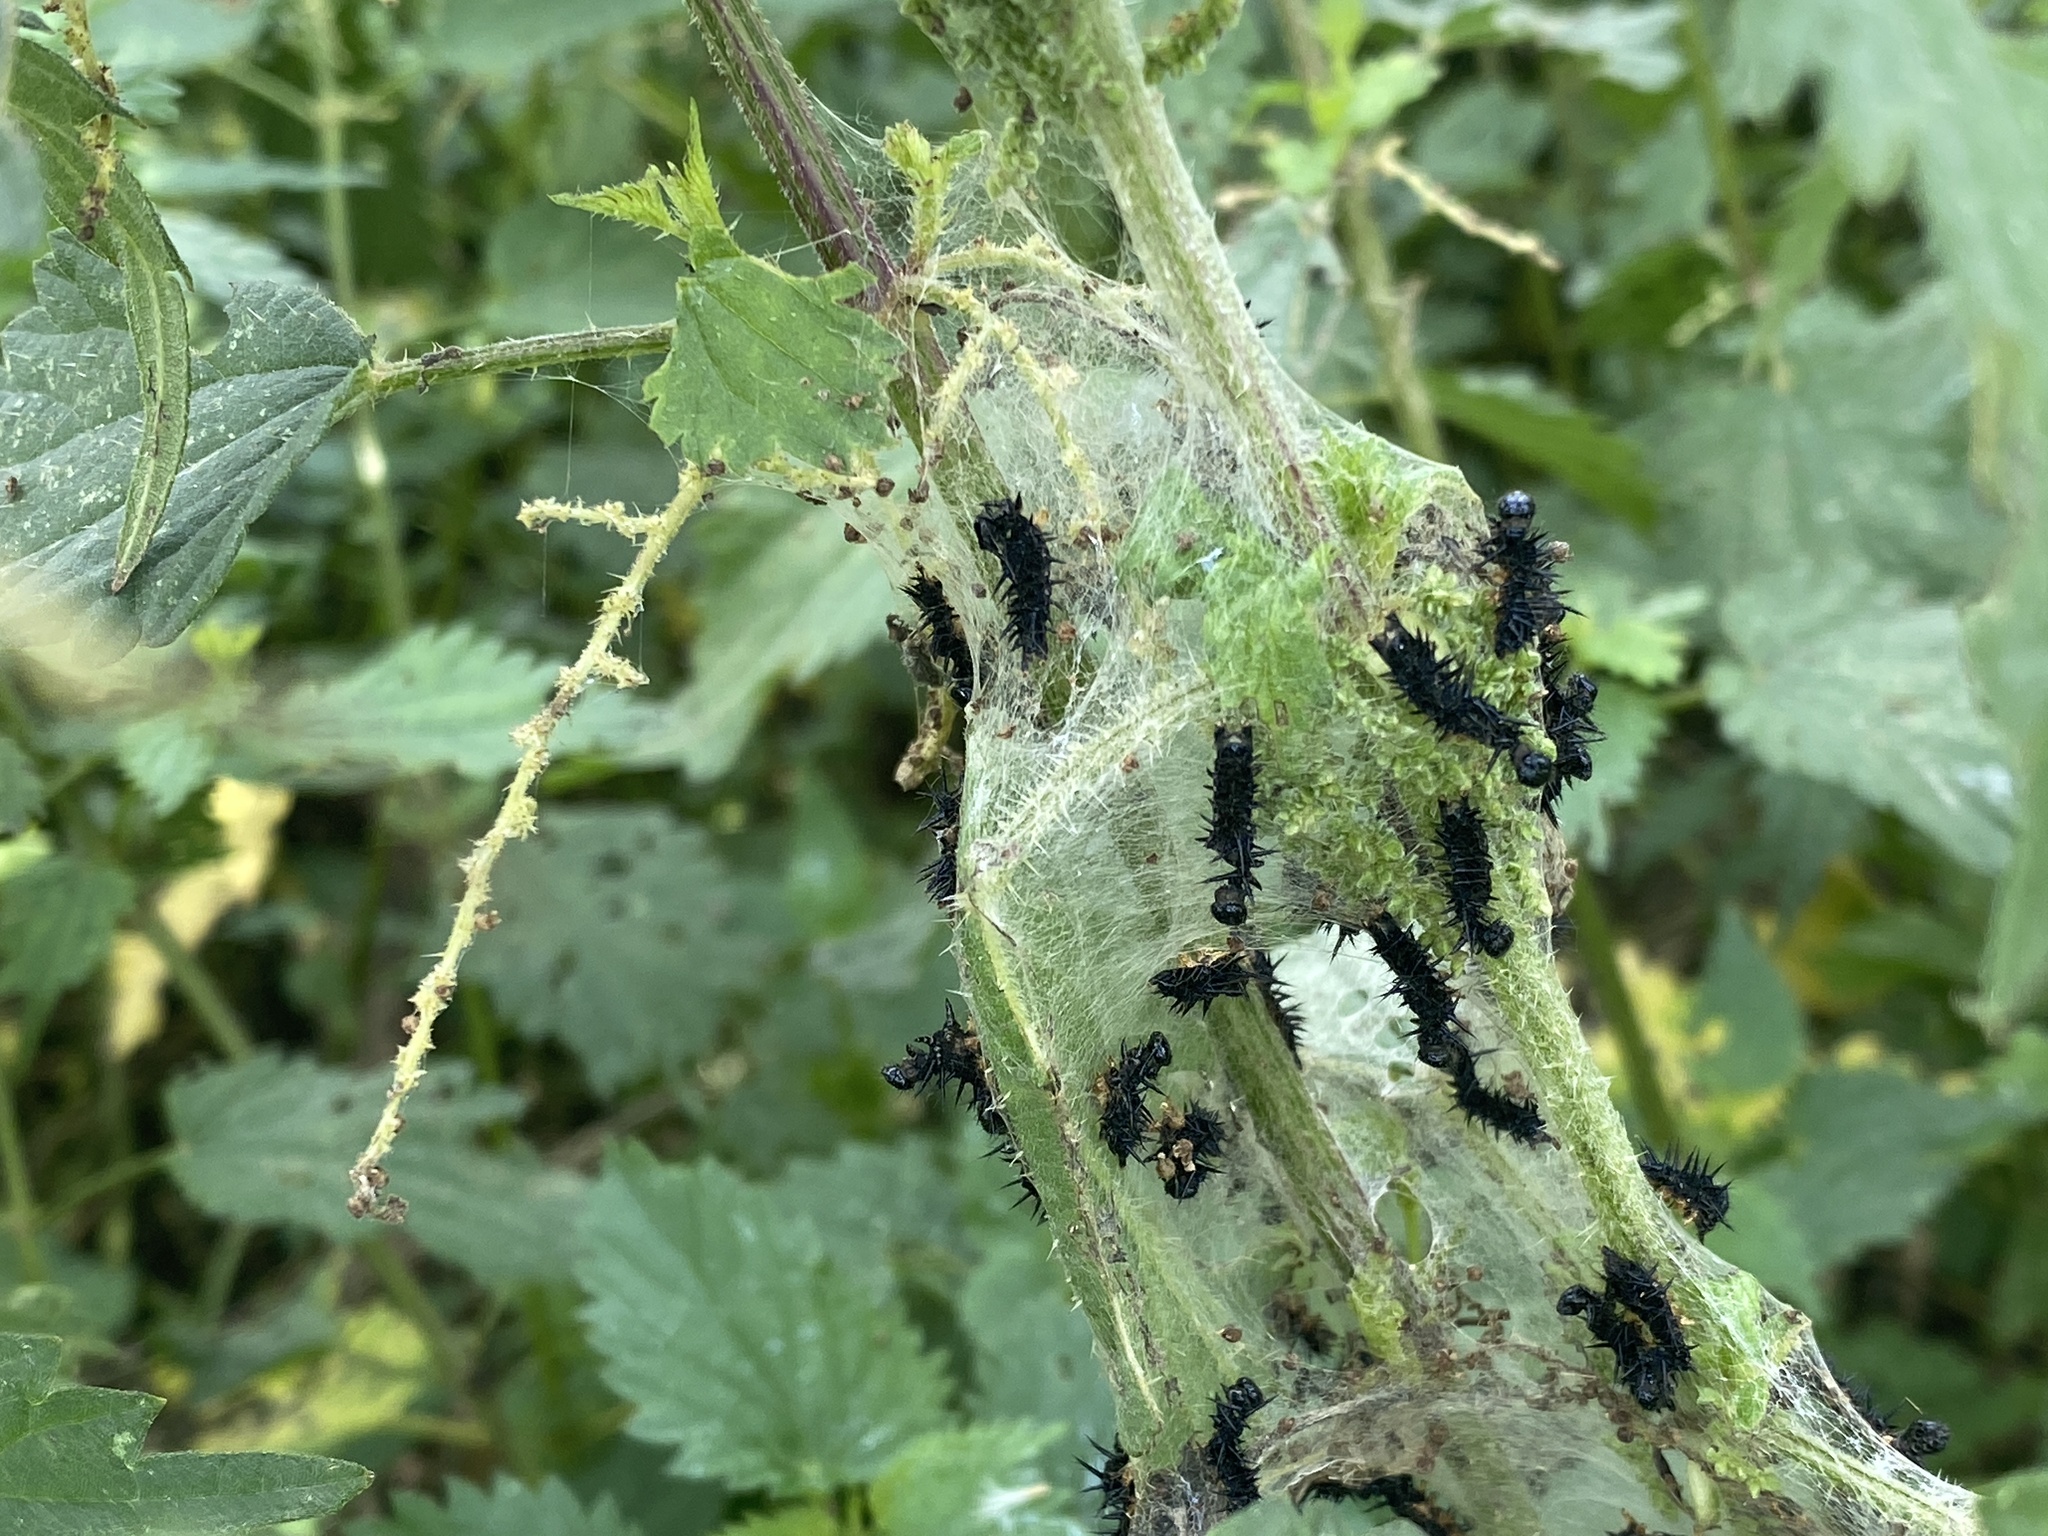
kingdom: Animalia
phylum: Arthropoda
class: Insecta
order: Lepidoptera
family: Nymphalidae
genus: Aglais
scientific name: Aglais io
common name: Peacock
